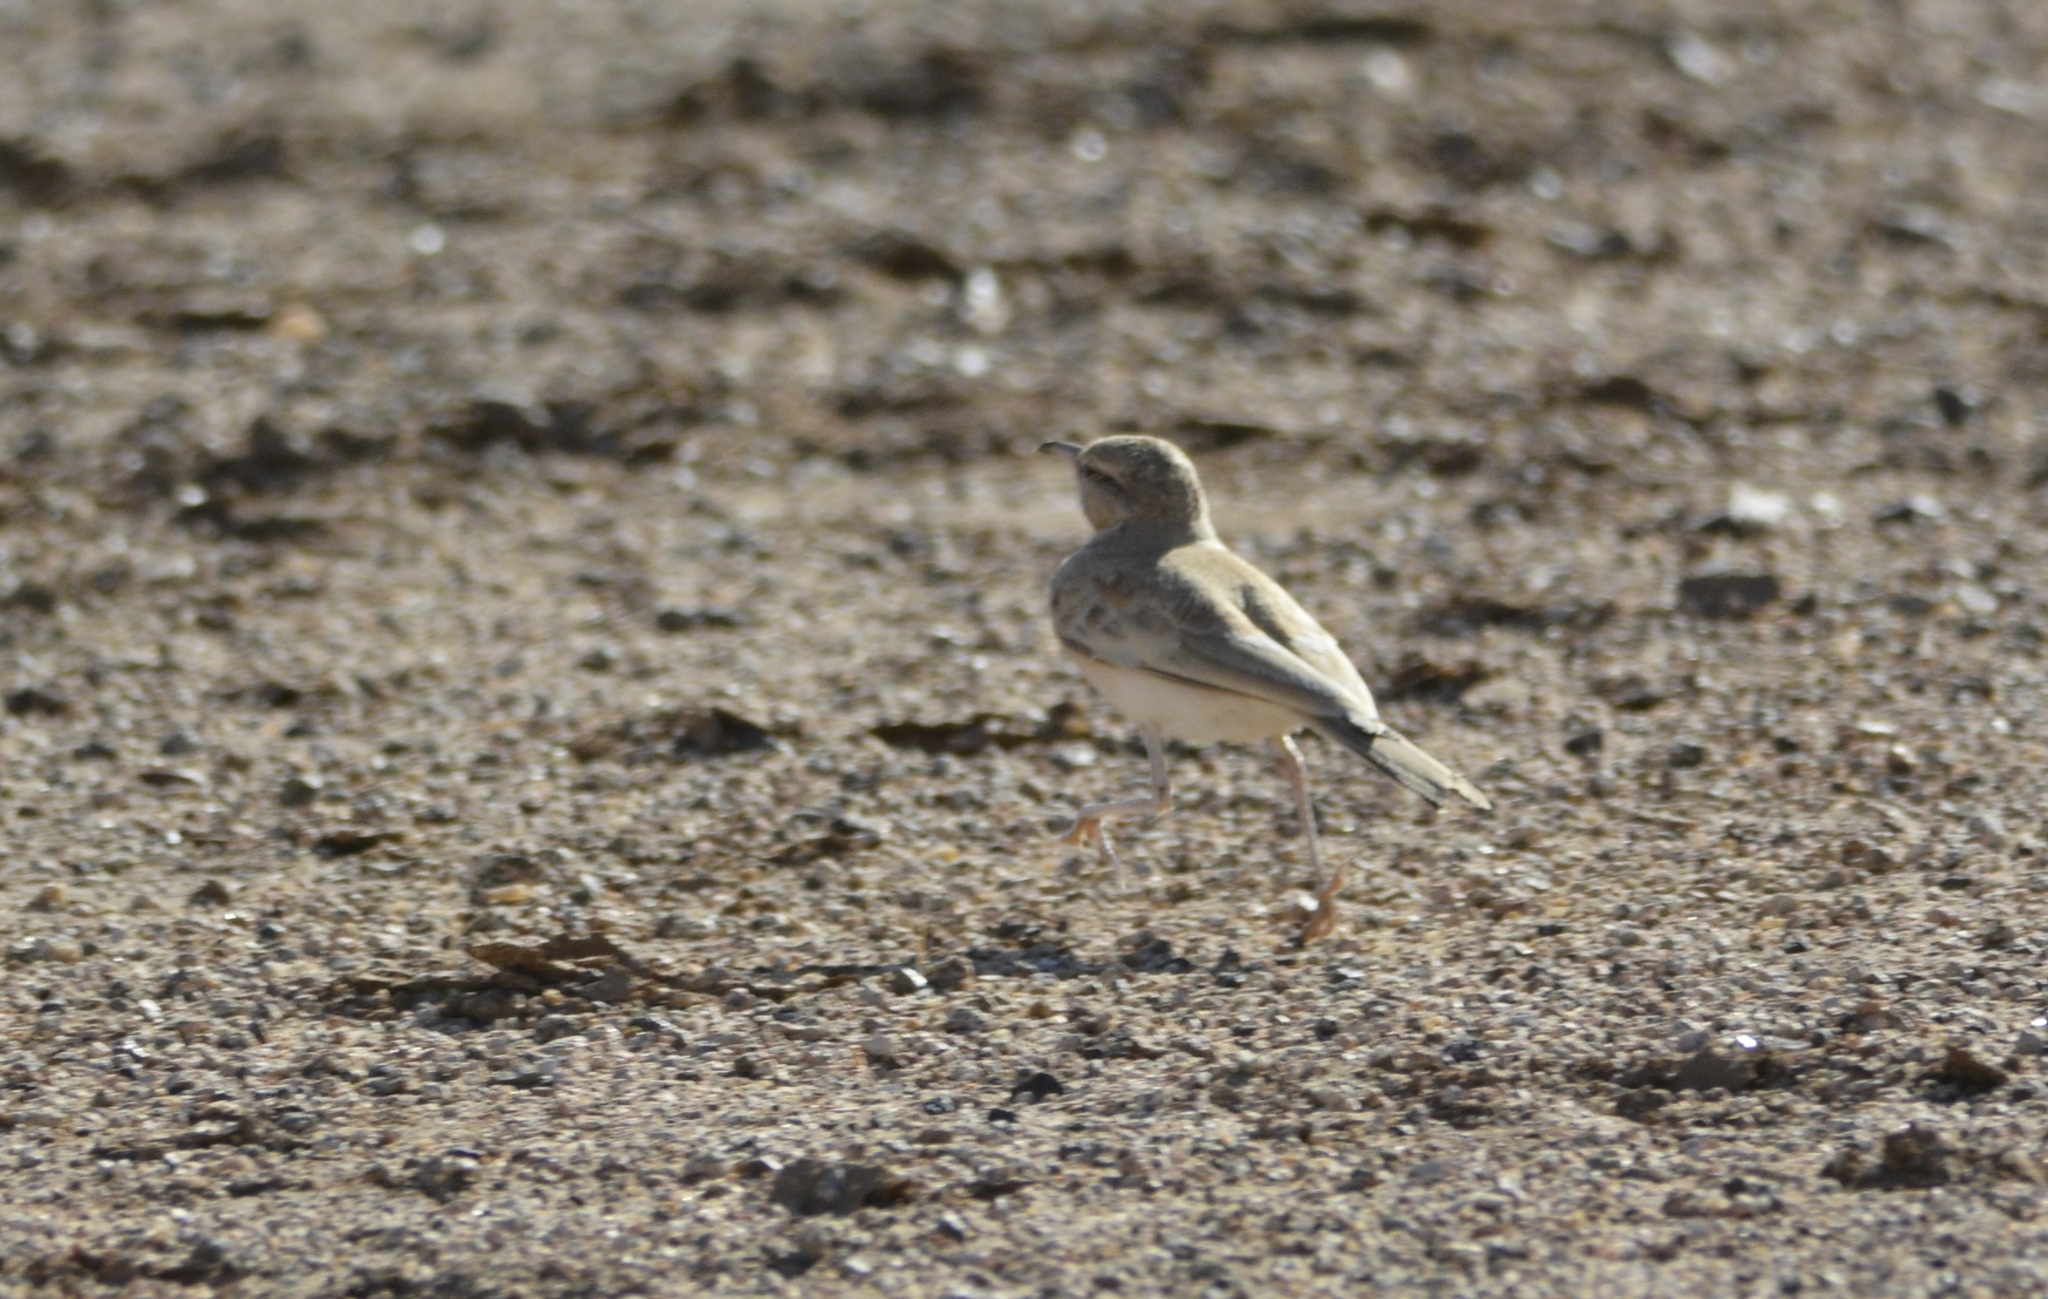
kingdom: Animalia
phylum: Chordata
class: Aves
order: Passeriformes
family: Alaudidae
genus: Alaemon
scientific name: Alaemon alaudipes
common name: Greater hoopoe-lark
